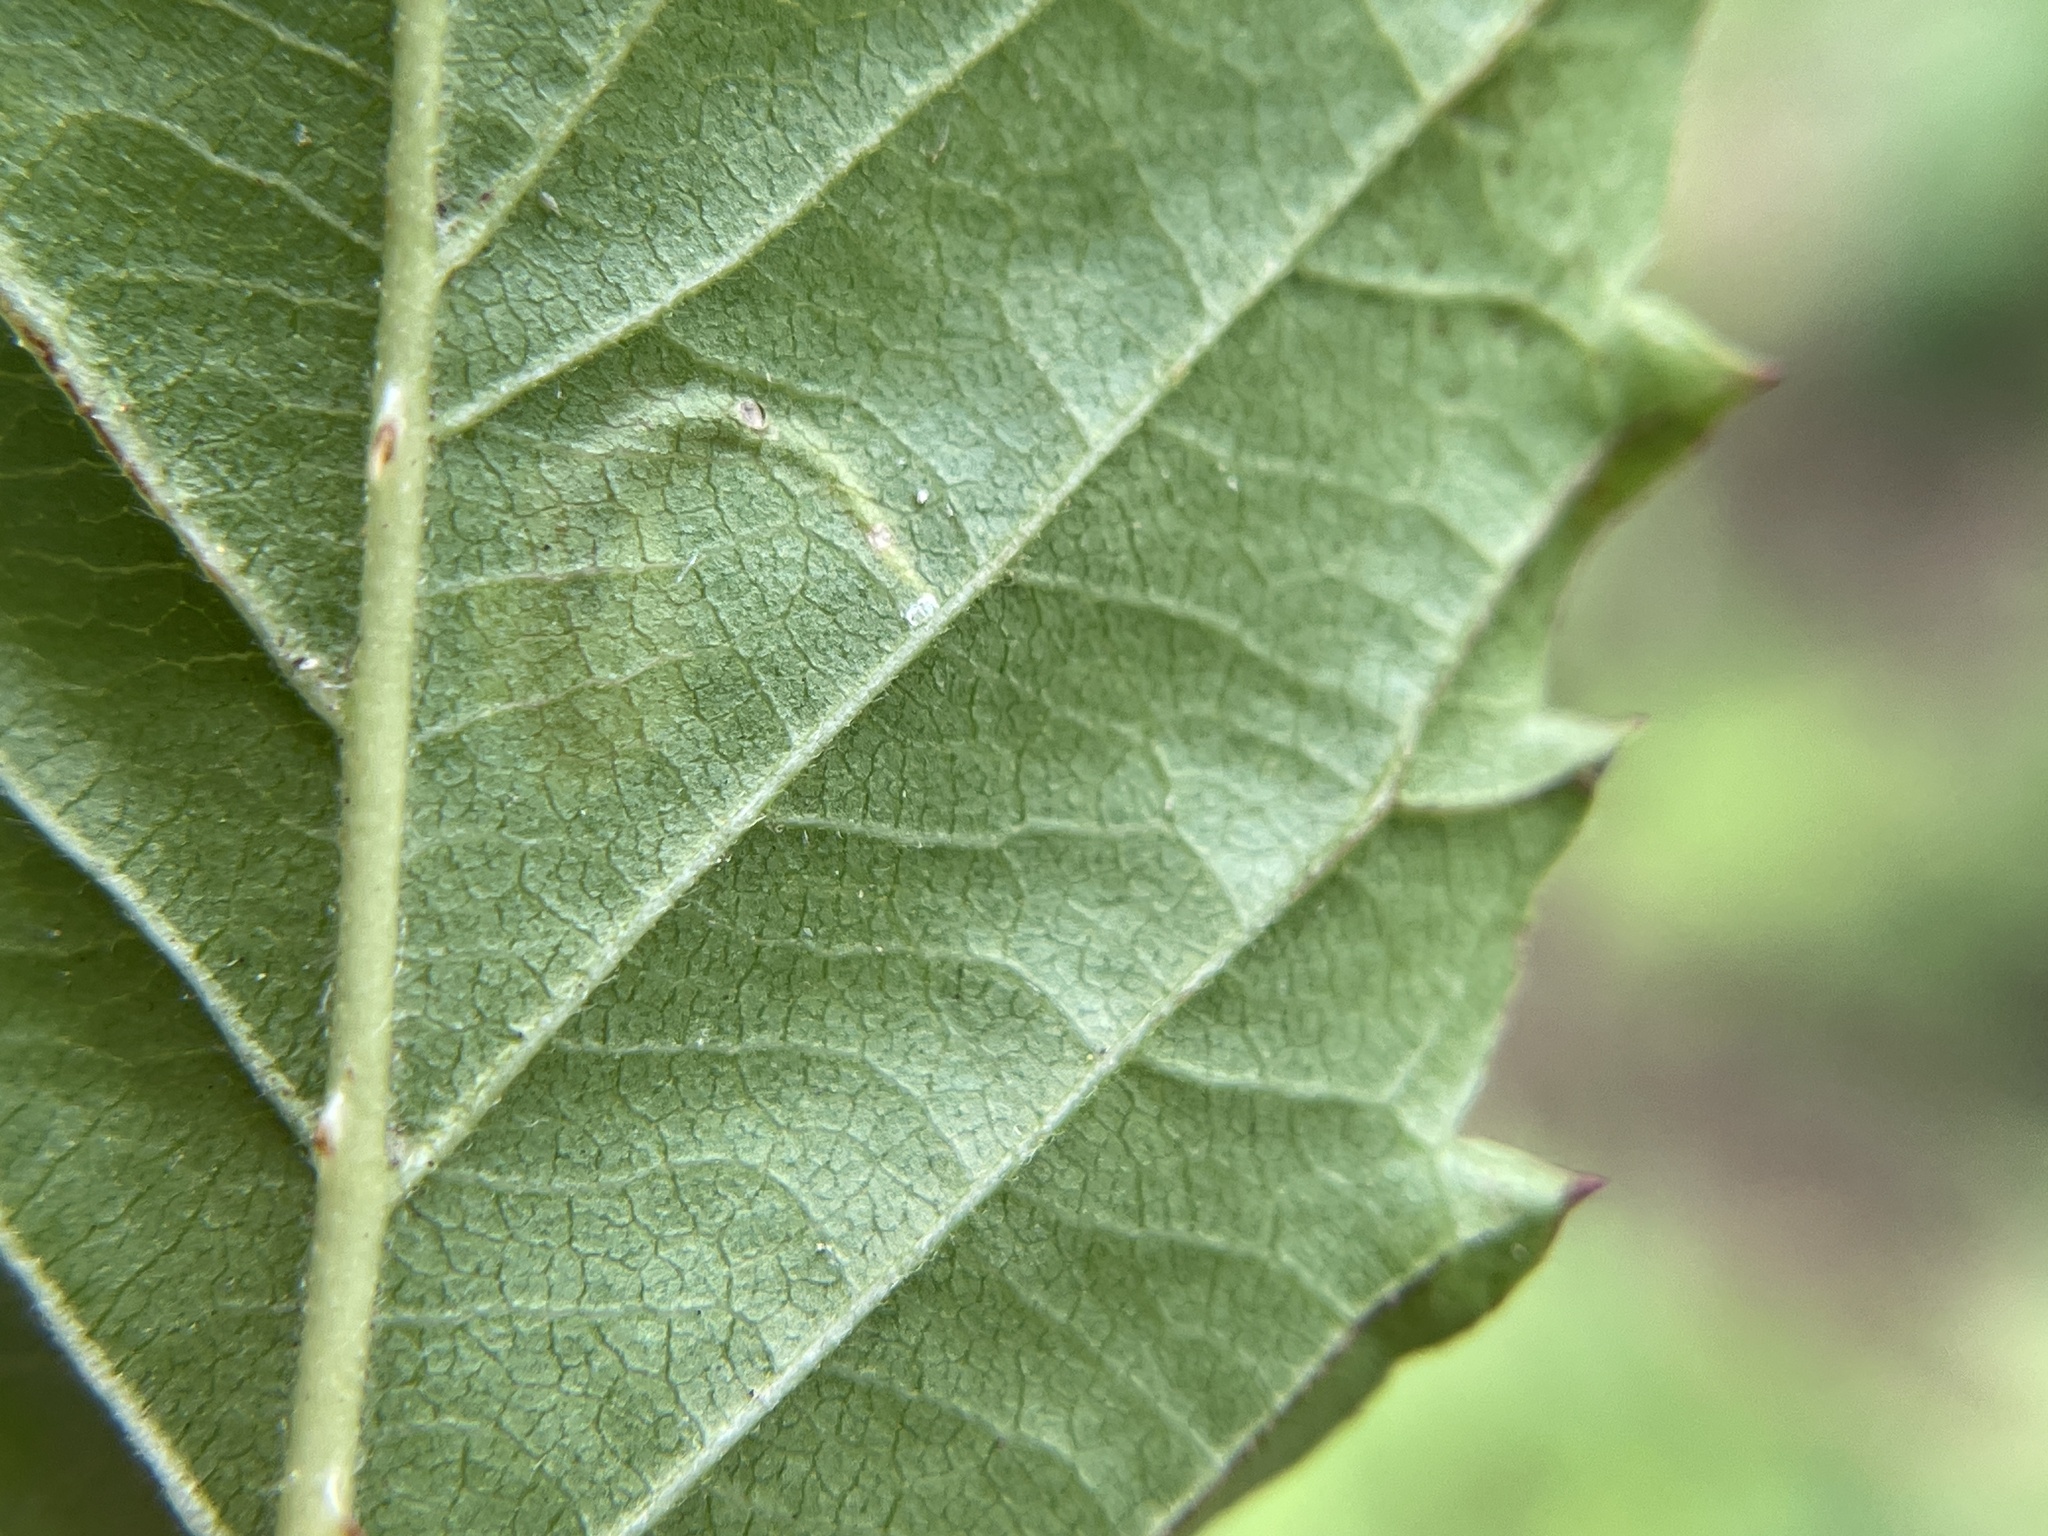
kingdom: Animalia
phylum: Arthropoda
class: Insecta
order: Lepidoptera
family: Tischeriidae
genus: Coptotriche
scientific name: Coptotriche aenea
